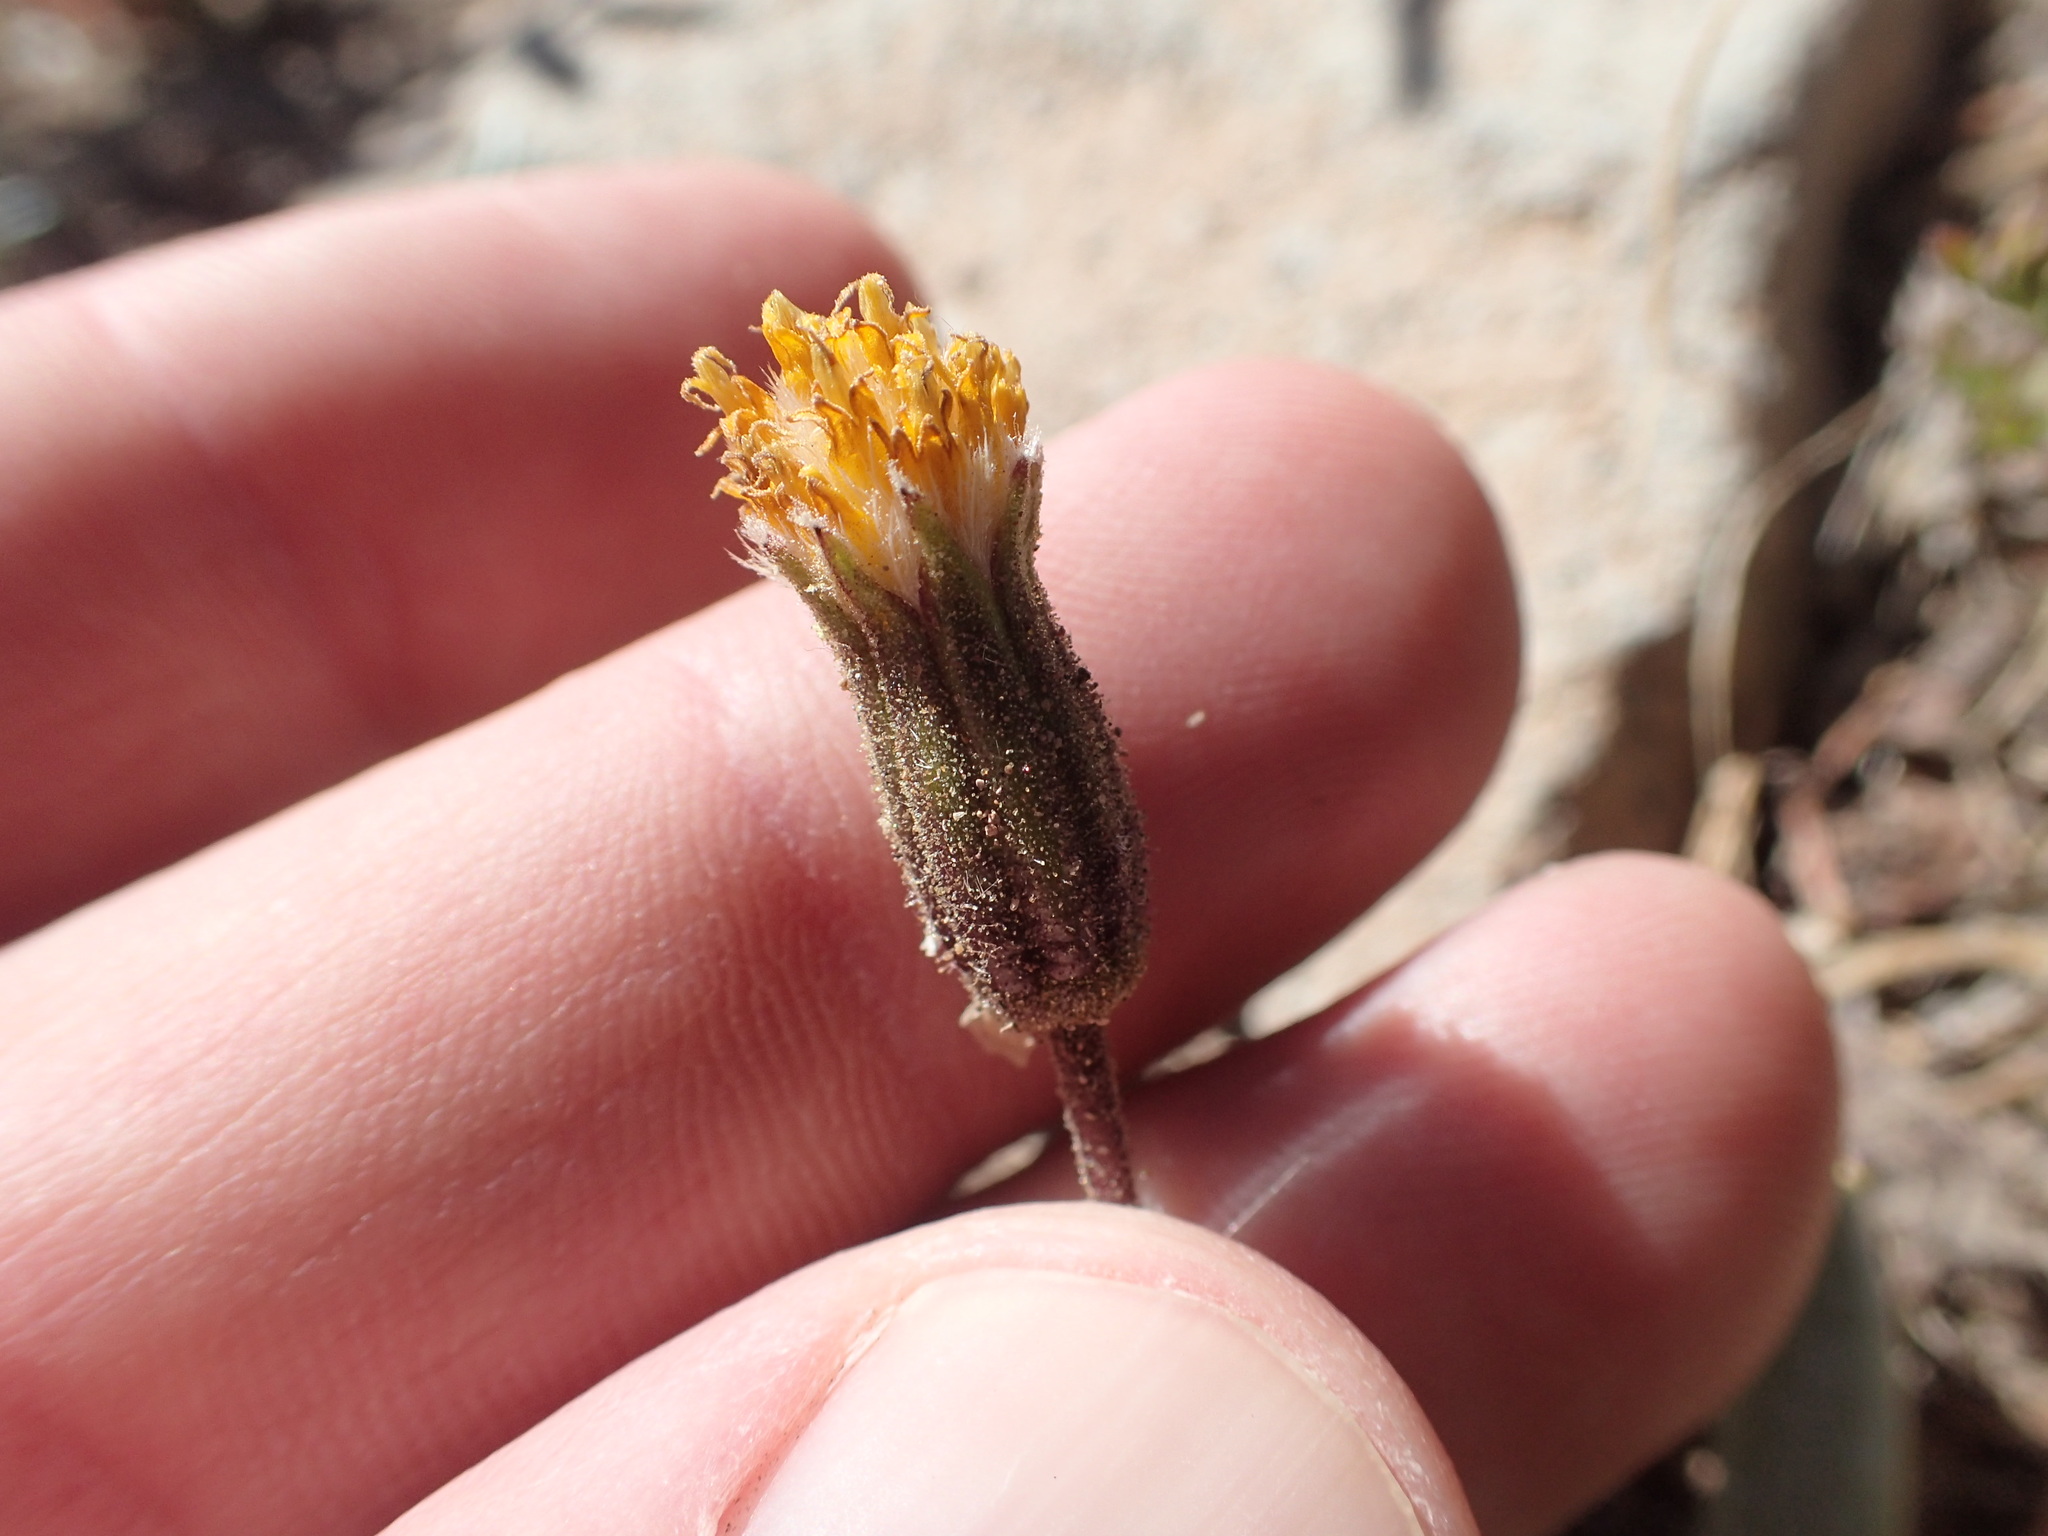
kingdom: Plantae
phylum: Tracheophyta
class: Magnoliopsida
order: Asterales
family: Asteraceae
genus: Raillardella
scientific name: Raillardella argentea
